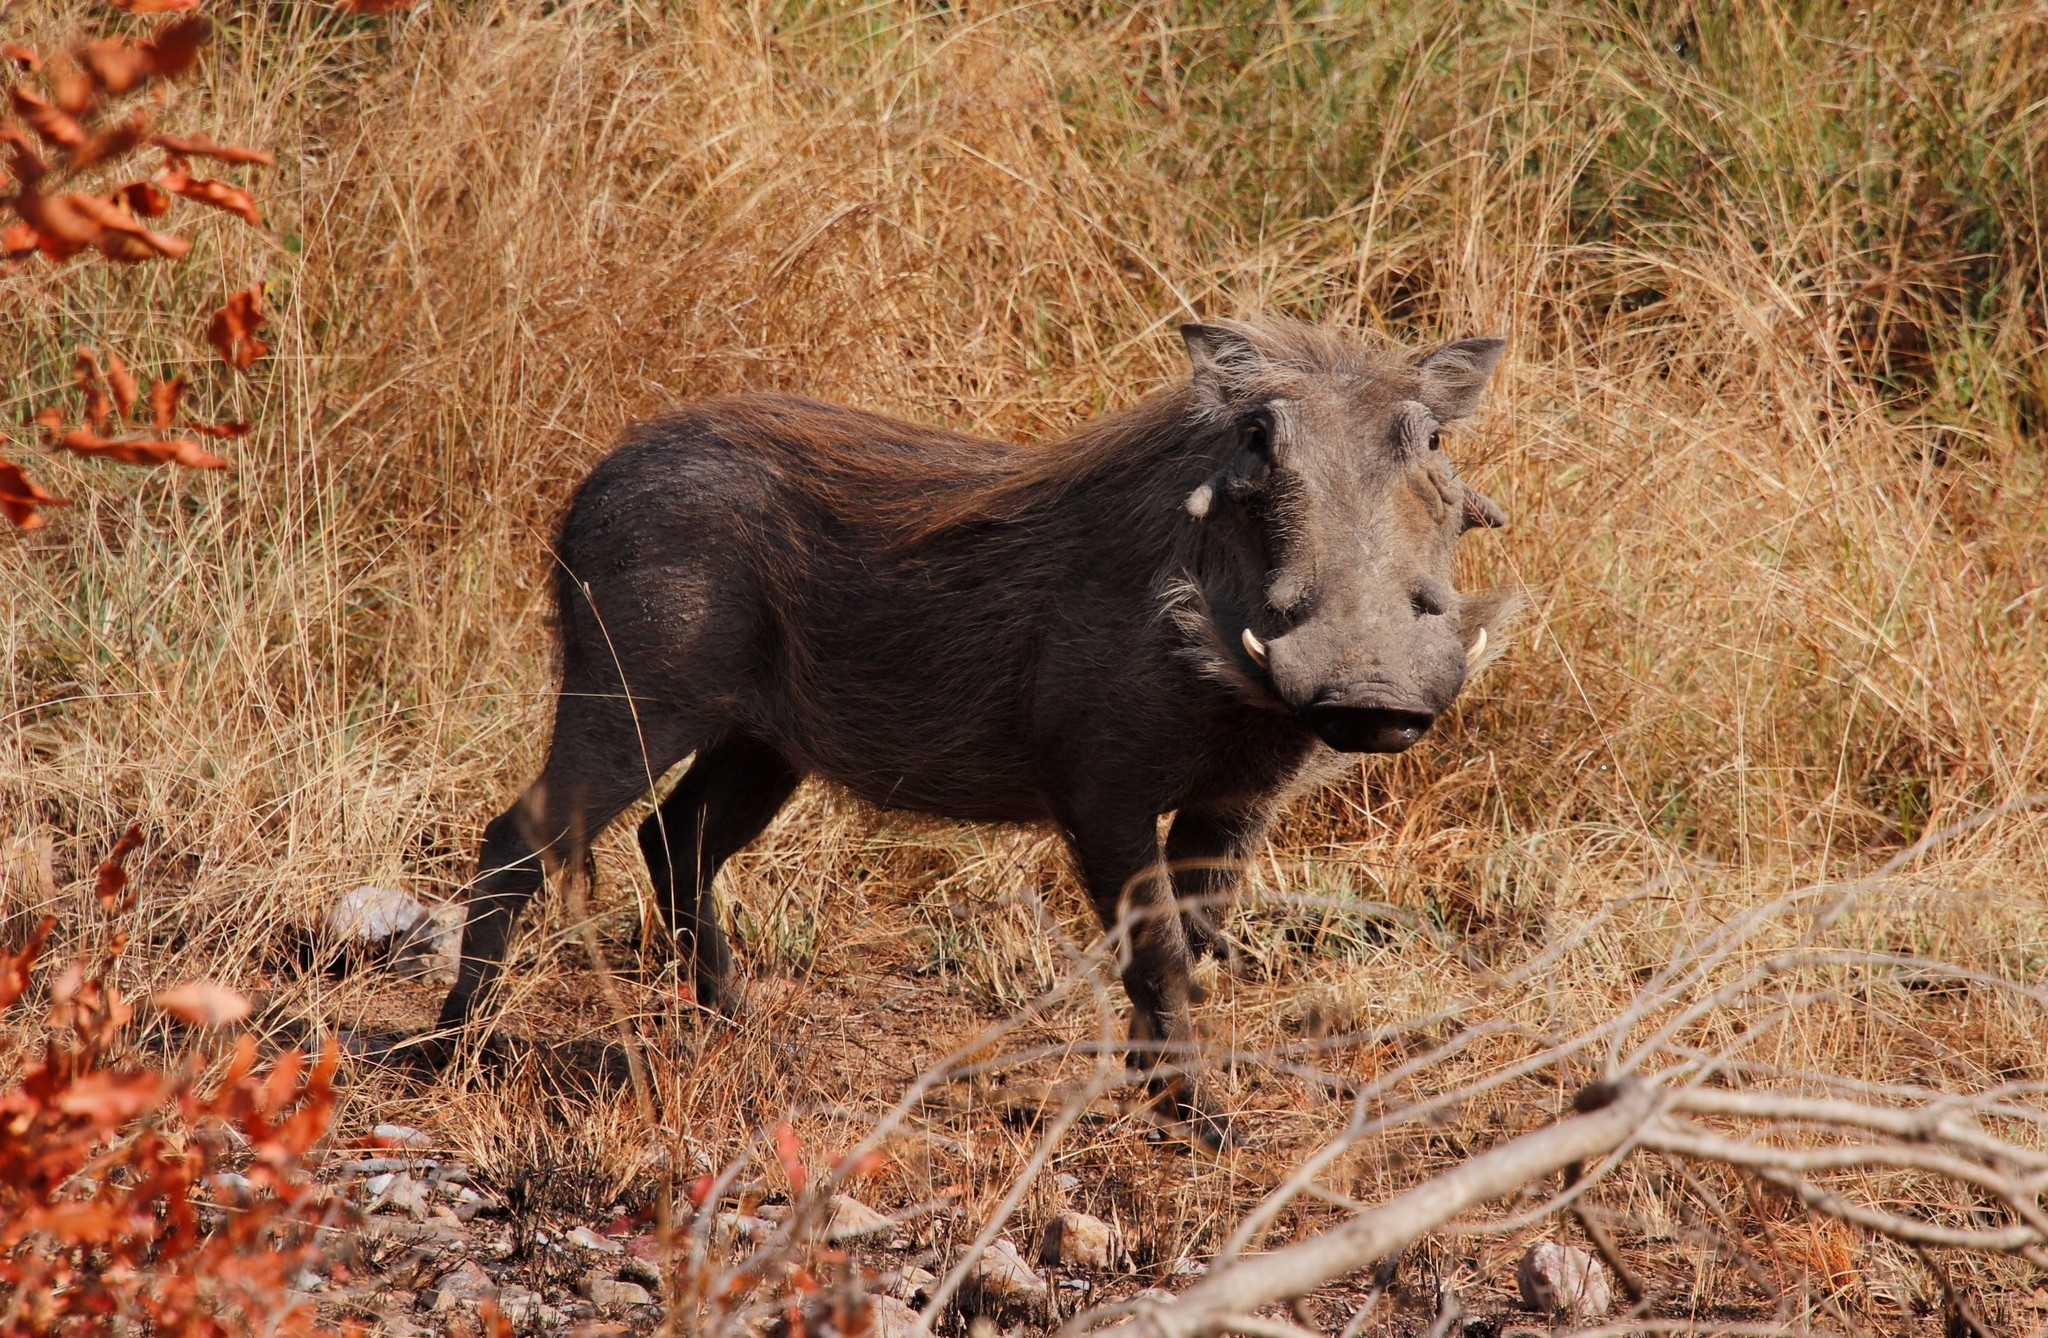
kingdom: Animalia
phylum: Chordata
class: Mammalia
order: Artiodactyla
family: Suidae
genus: Phacochoerus
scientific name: Phacochoerus africanus
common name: Common warthog
